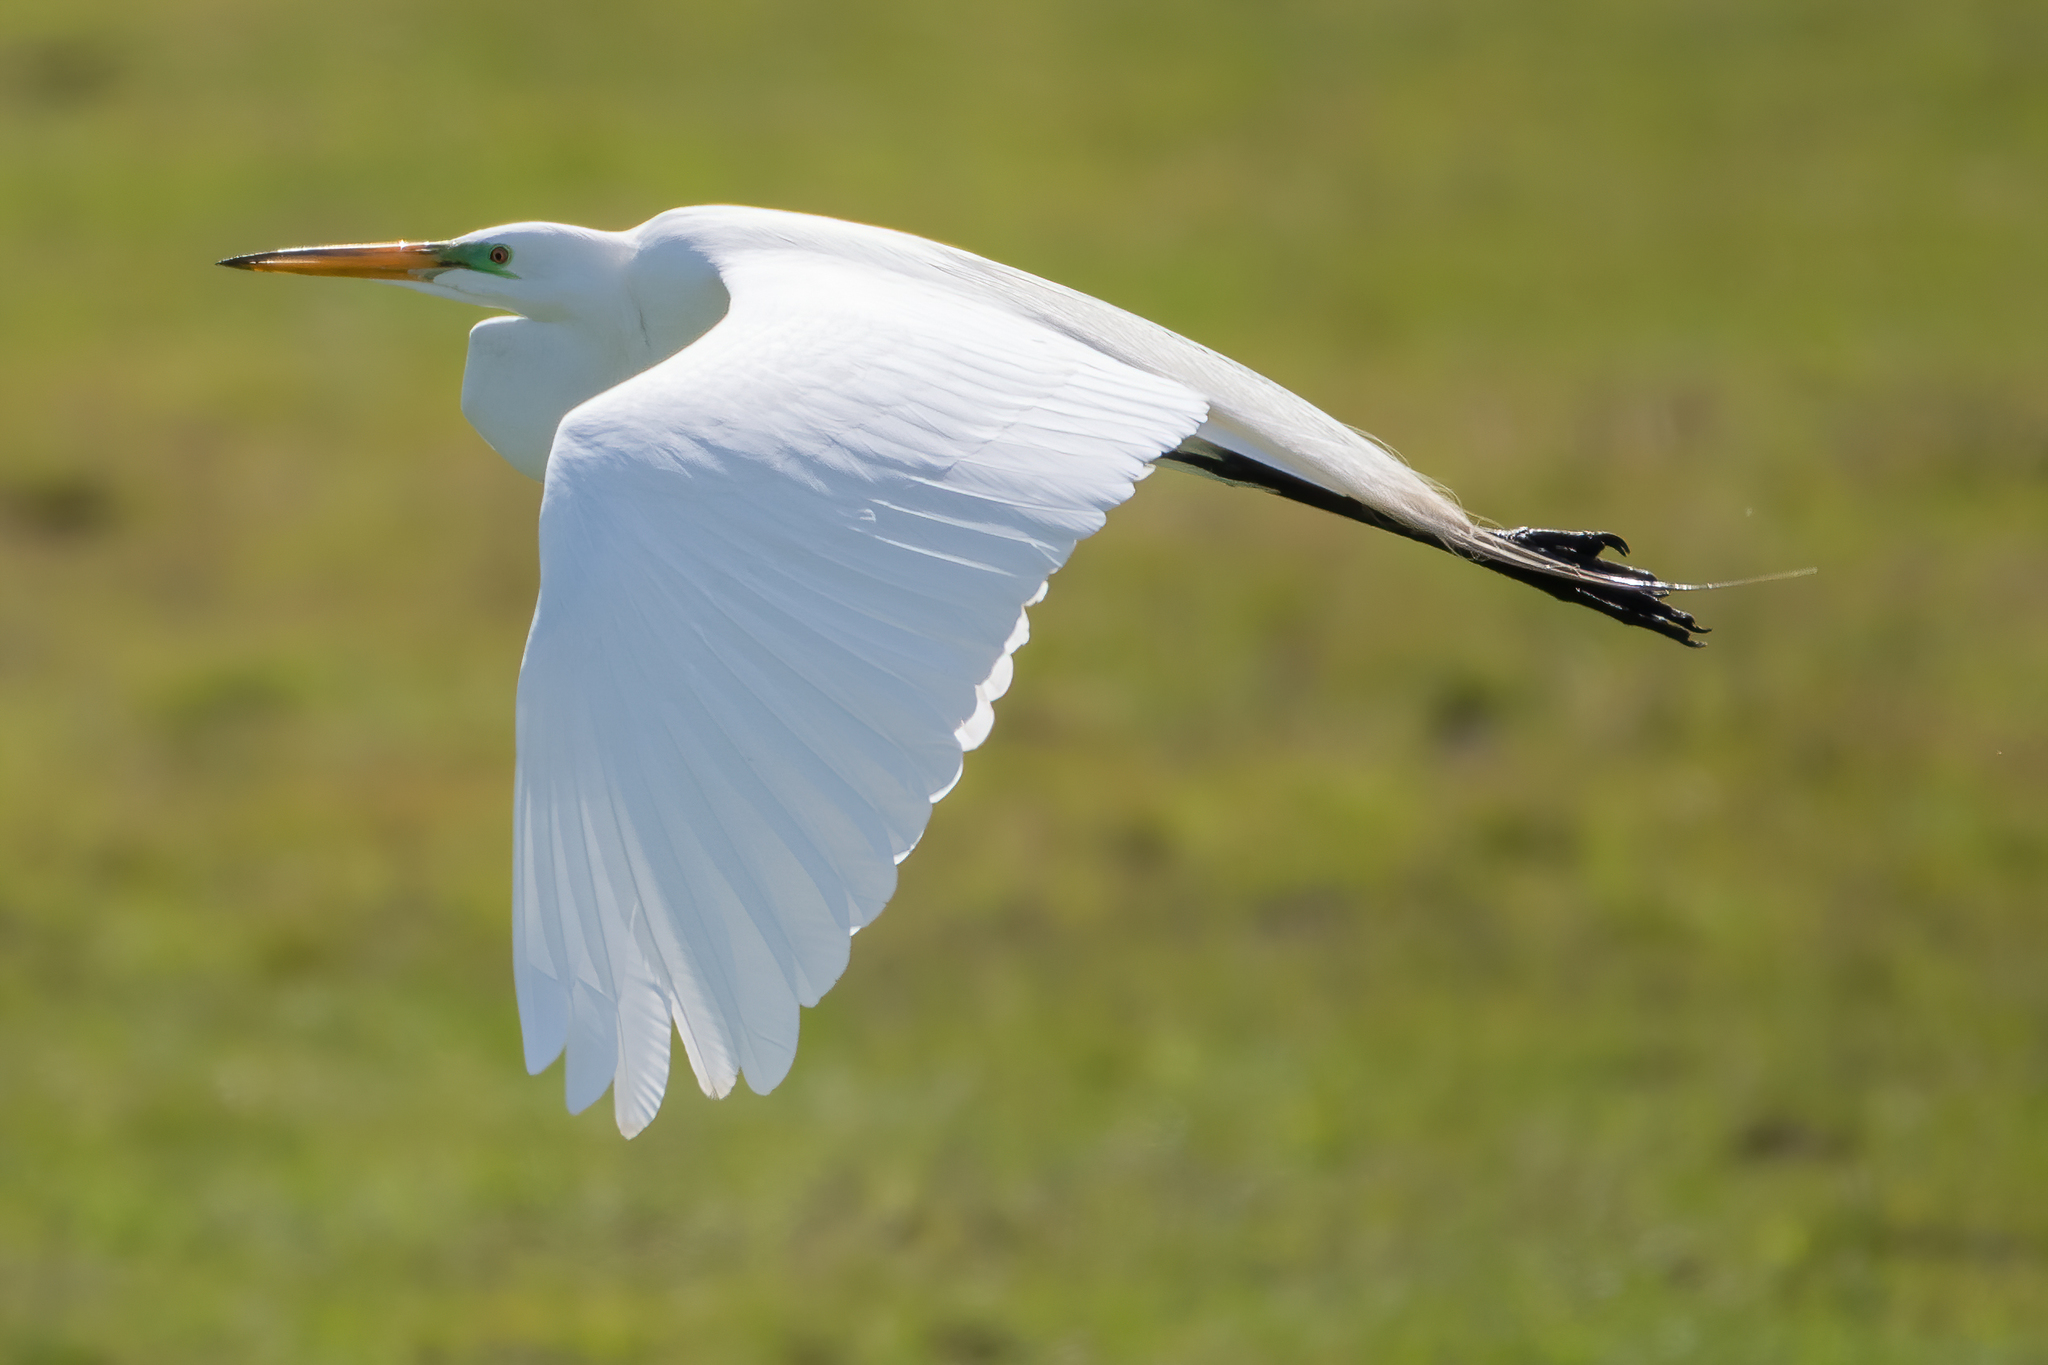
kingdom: Animalia
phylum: Chordata
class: Aves
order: Pelecaniformes
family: Ardeidae
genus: Ardea
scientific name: Ardea alba
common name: Great egret
